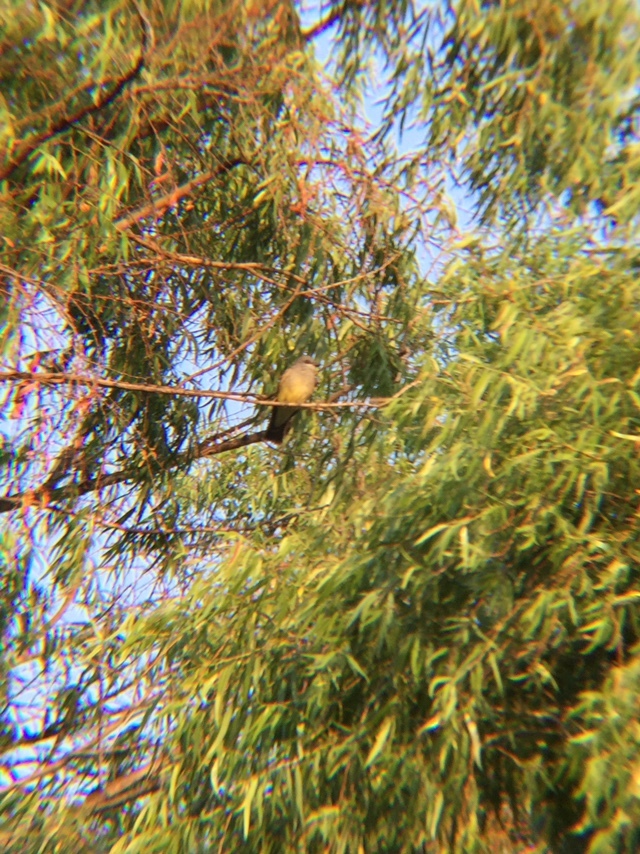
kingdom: Animalia
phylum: Chordata
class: Aves
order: Passeriformes
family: Tyrannidae
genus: Tyrannus
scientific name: Tyrannus vociferans
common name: Cassin's kingbird
